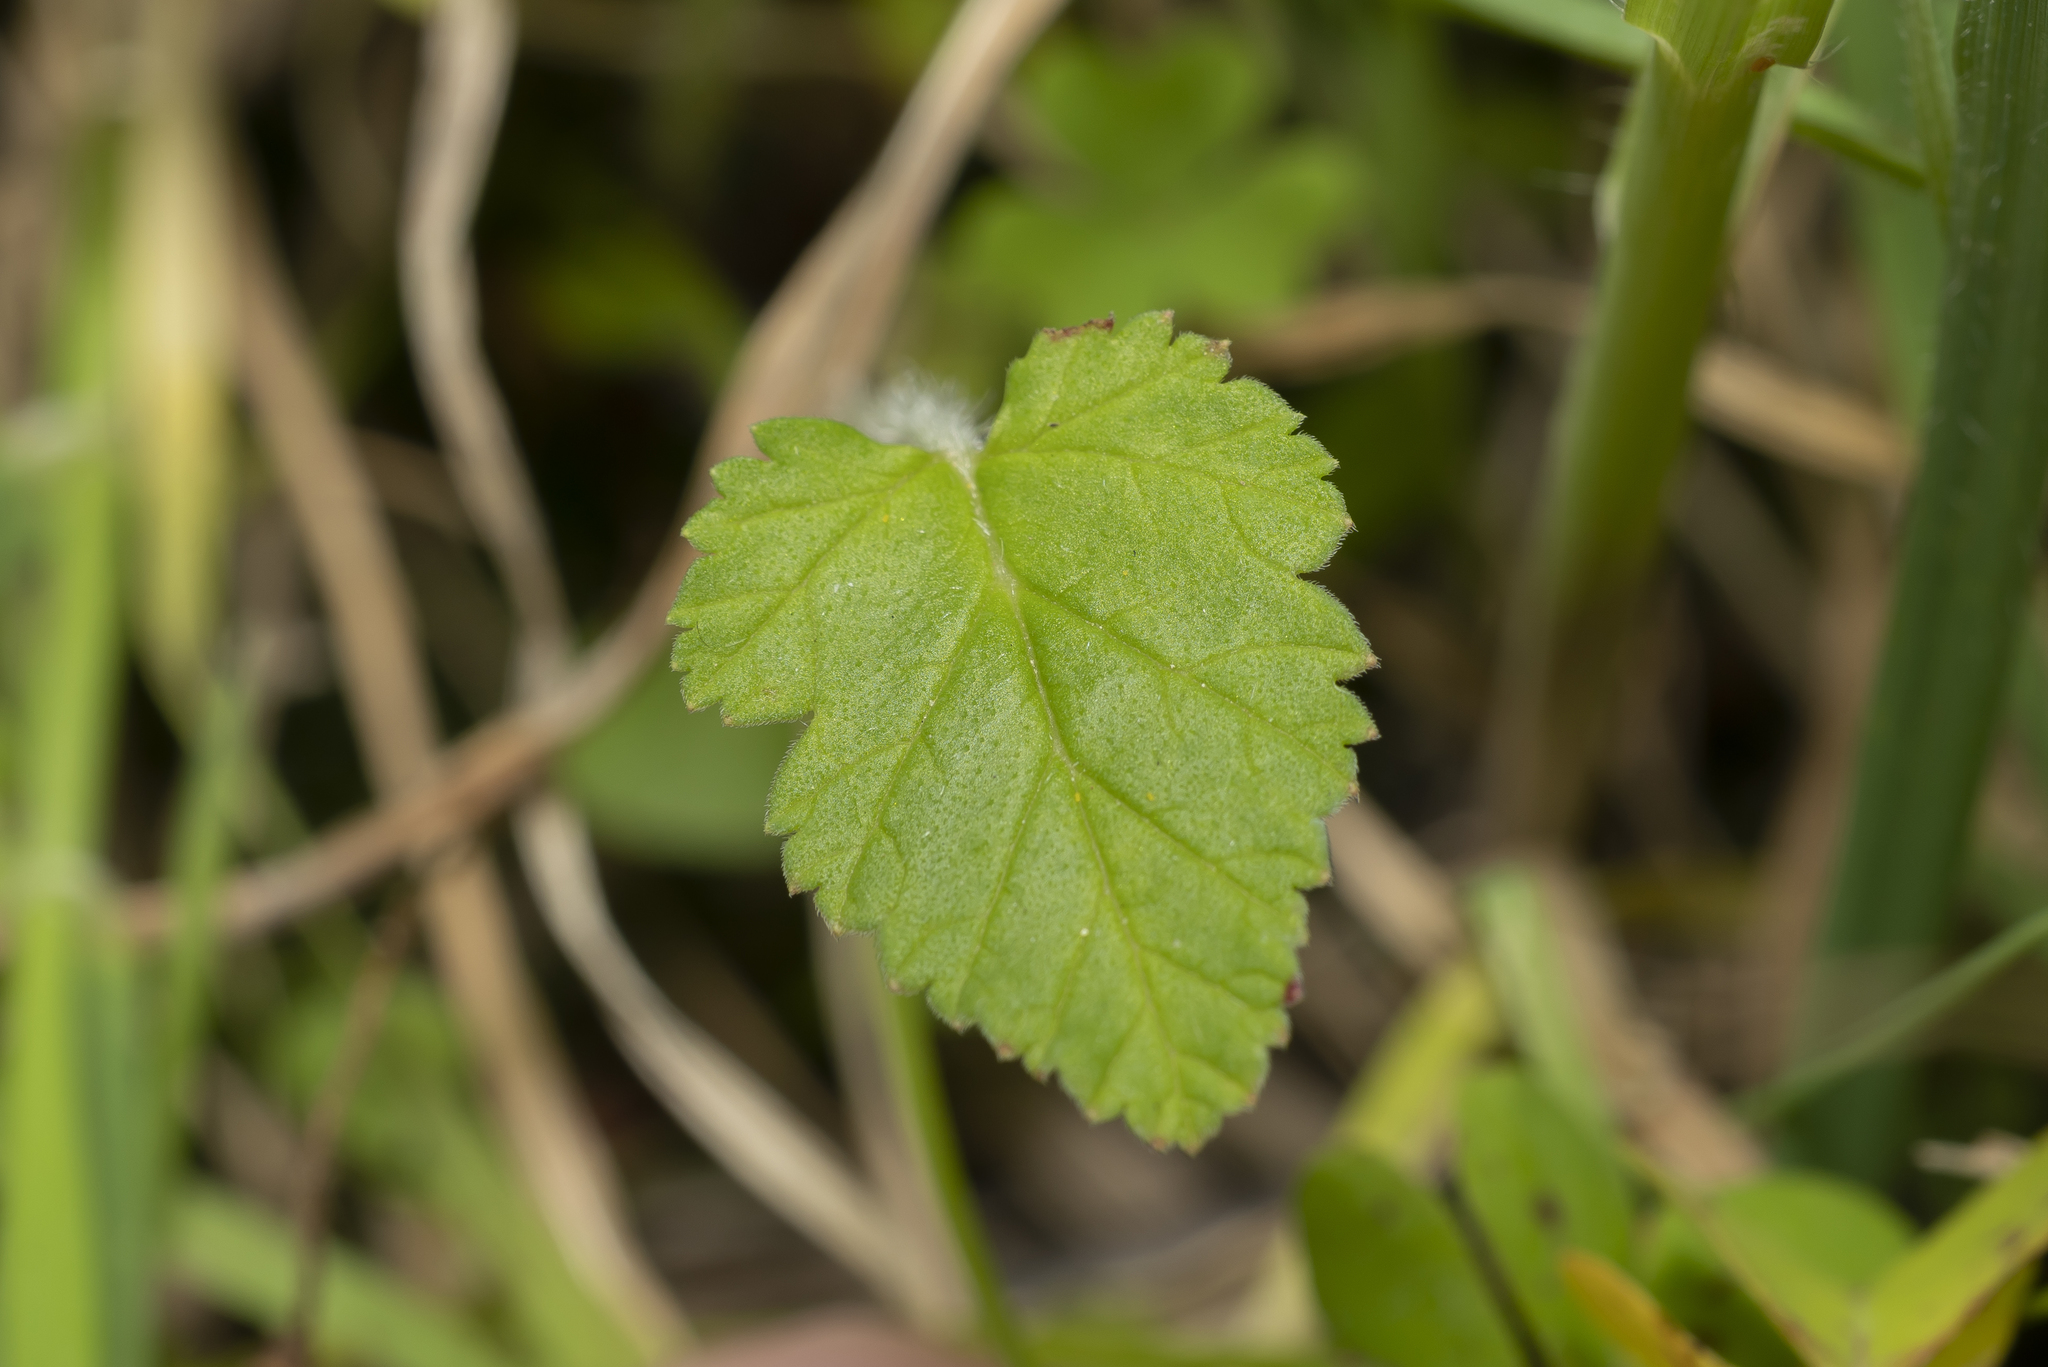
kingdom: Plantae
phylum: Tracheophyta
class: Magnoliopsida
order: Geraniales
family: Geraniaceae
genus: Erodium
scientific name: Erodium gruinum
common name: Iranian stork's bill
